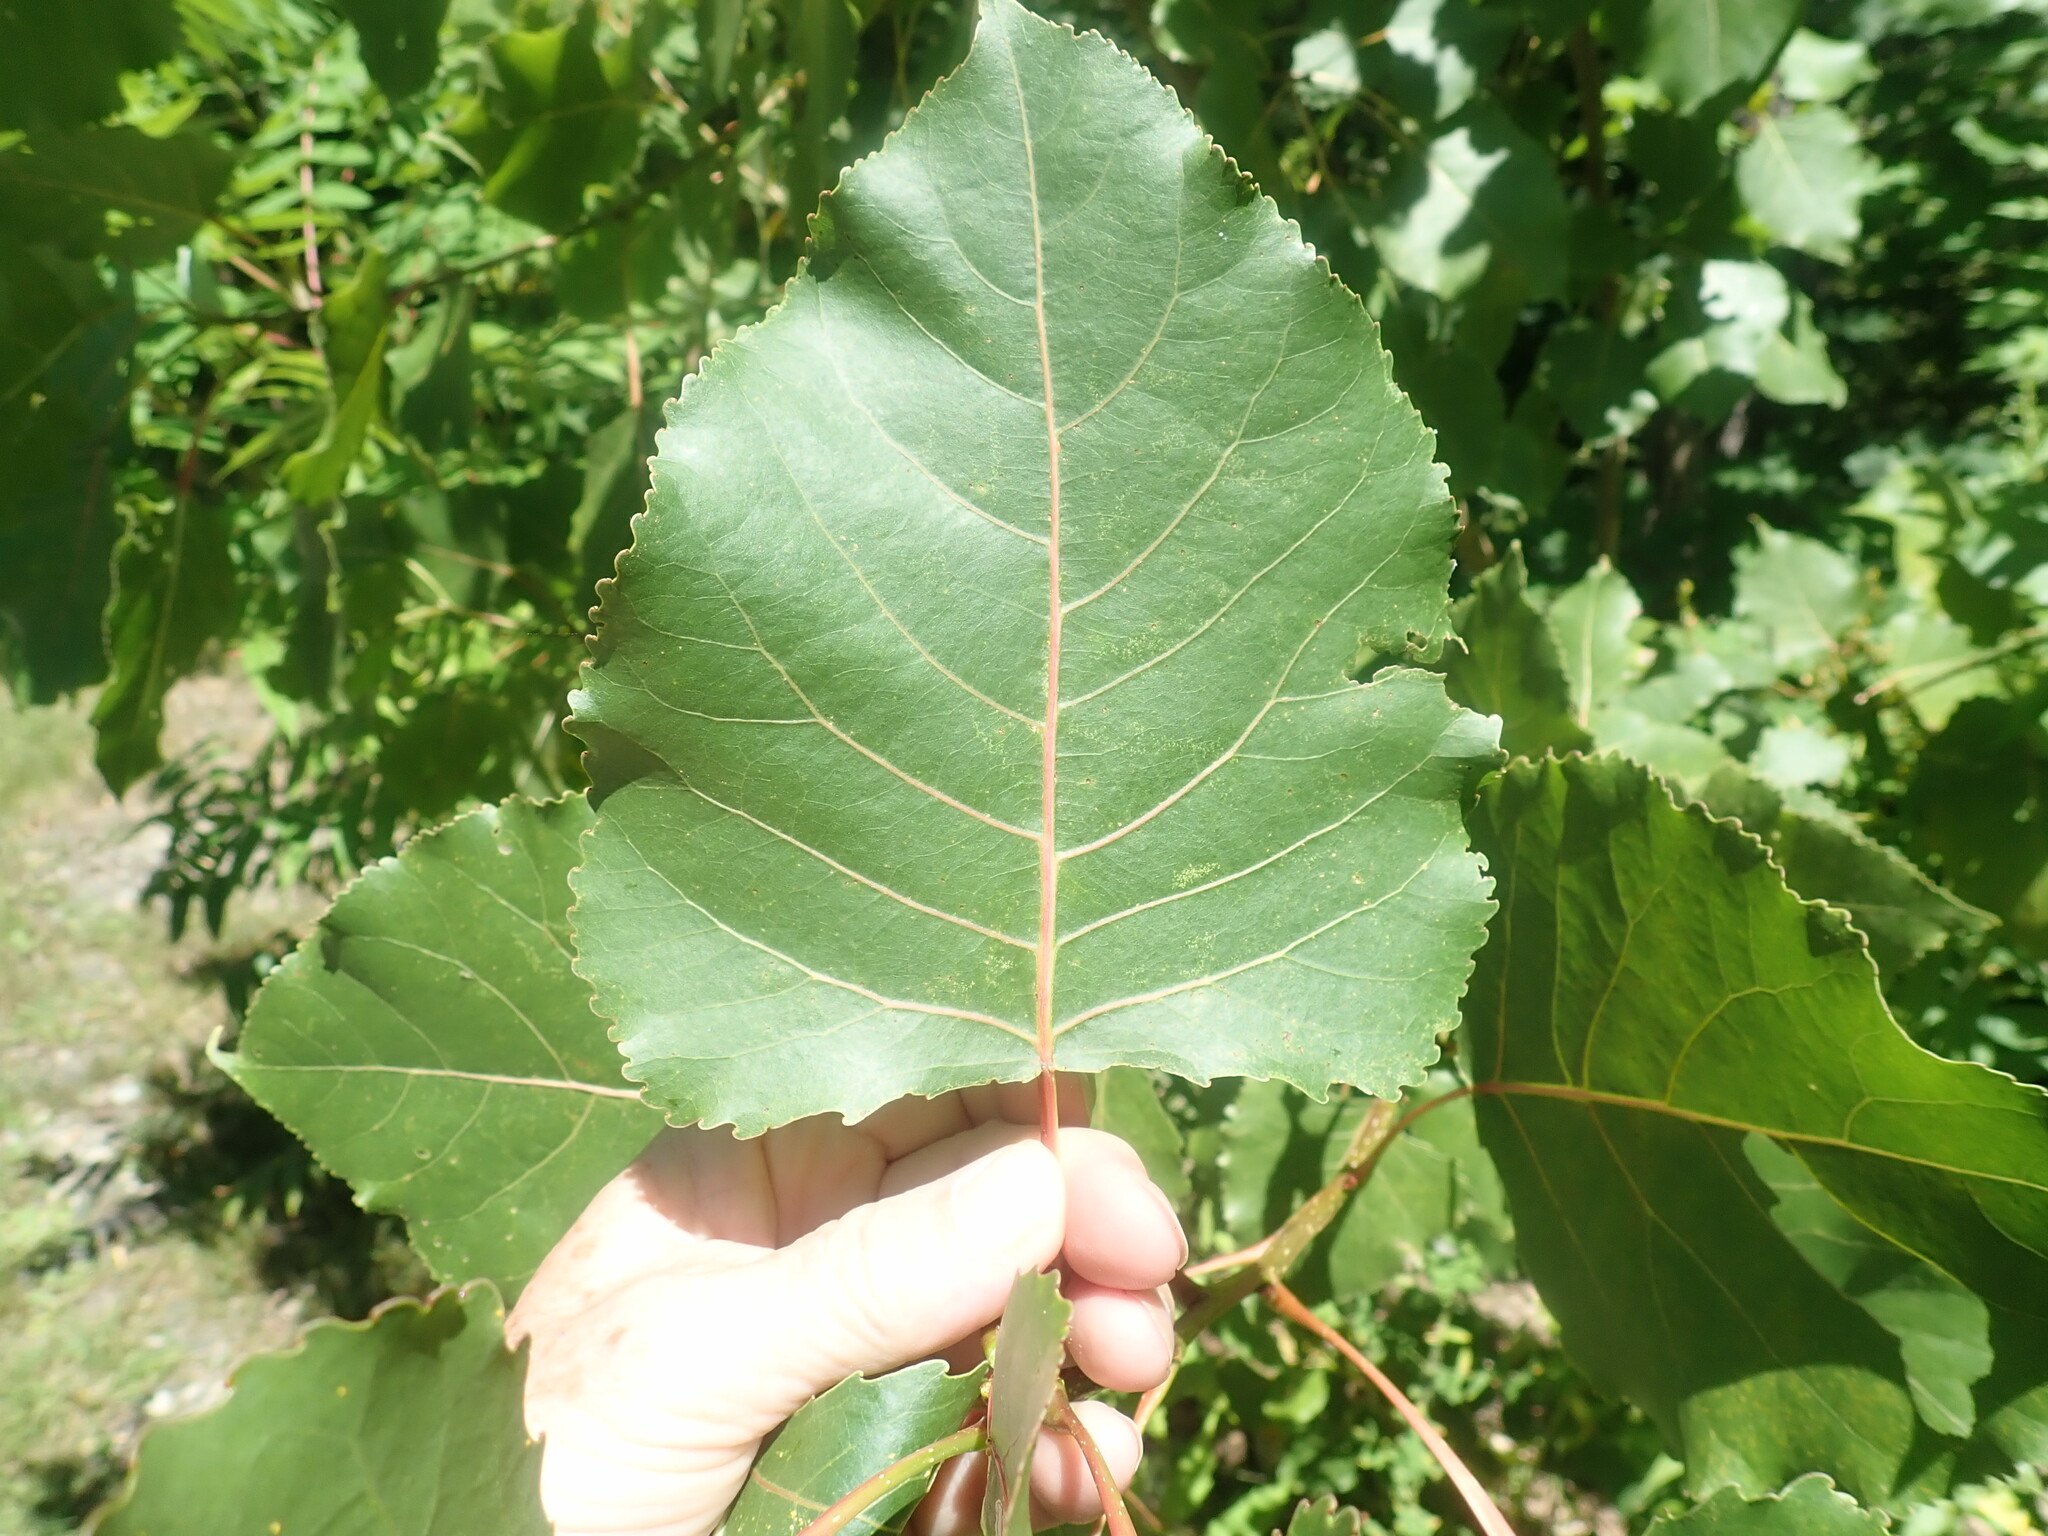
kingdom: Plantae
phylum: Tracheophyta
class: Magnoliopsida
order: Malpighiales
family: Salicaceae
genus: Populus
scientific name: Populus deltoides
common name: Eastern cottonwood
